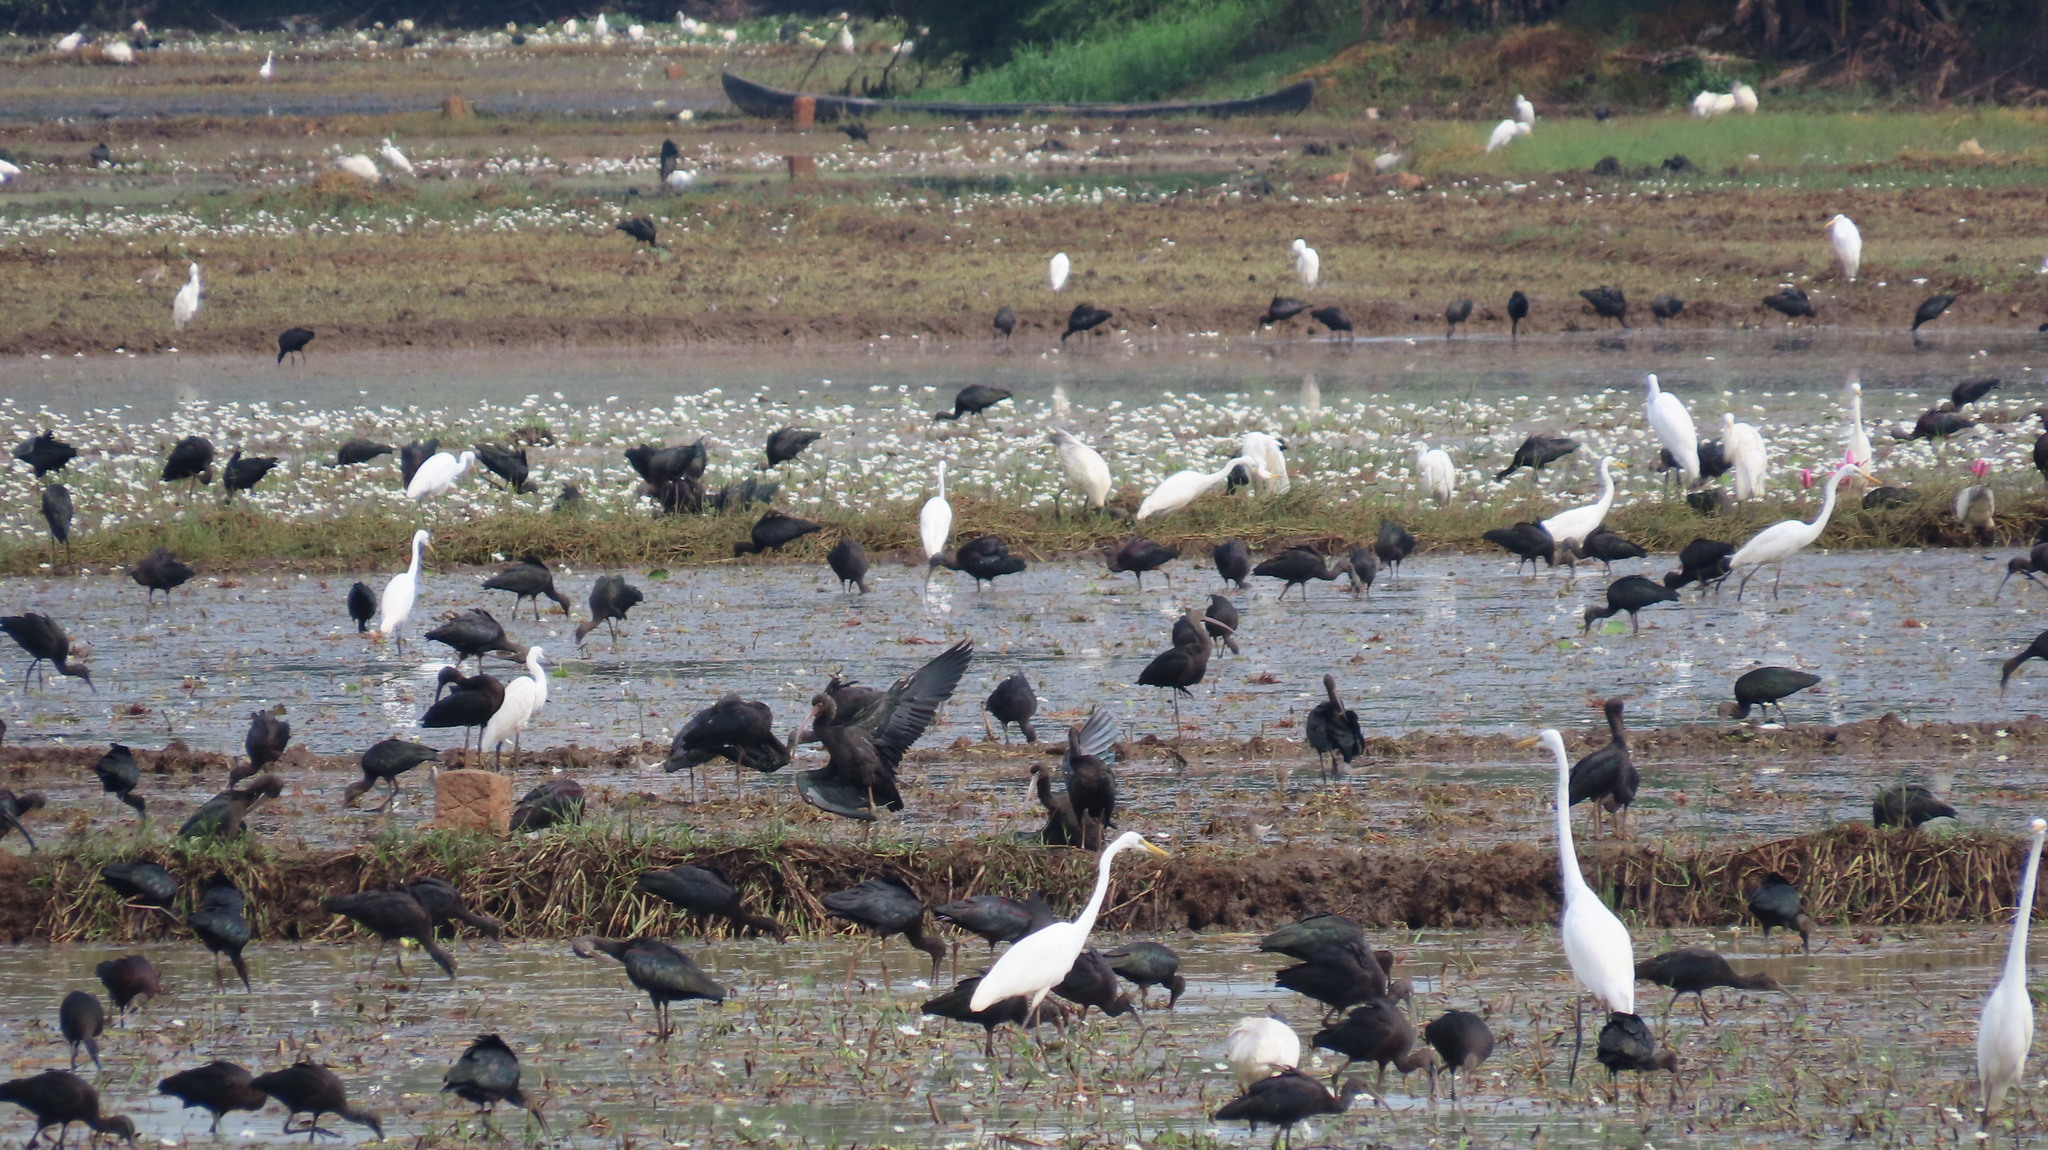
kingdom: Animalia
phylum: Chordata
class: Aves
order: Pelecaniformes
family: Threskiornithidae
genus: Plegadis
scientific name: Plegadis falcinellus
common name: Glossy ibis
